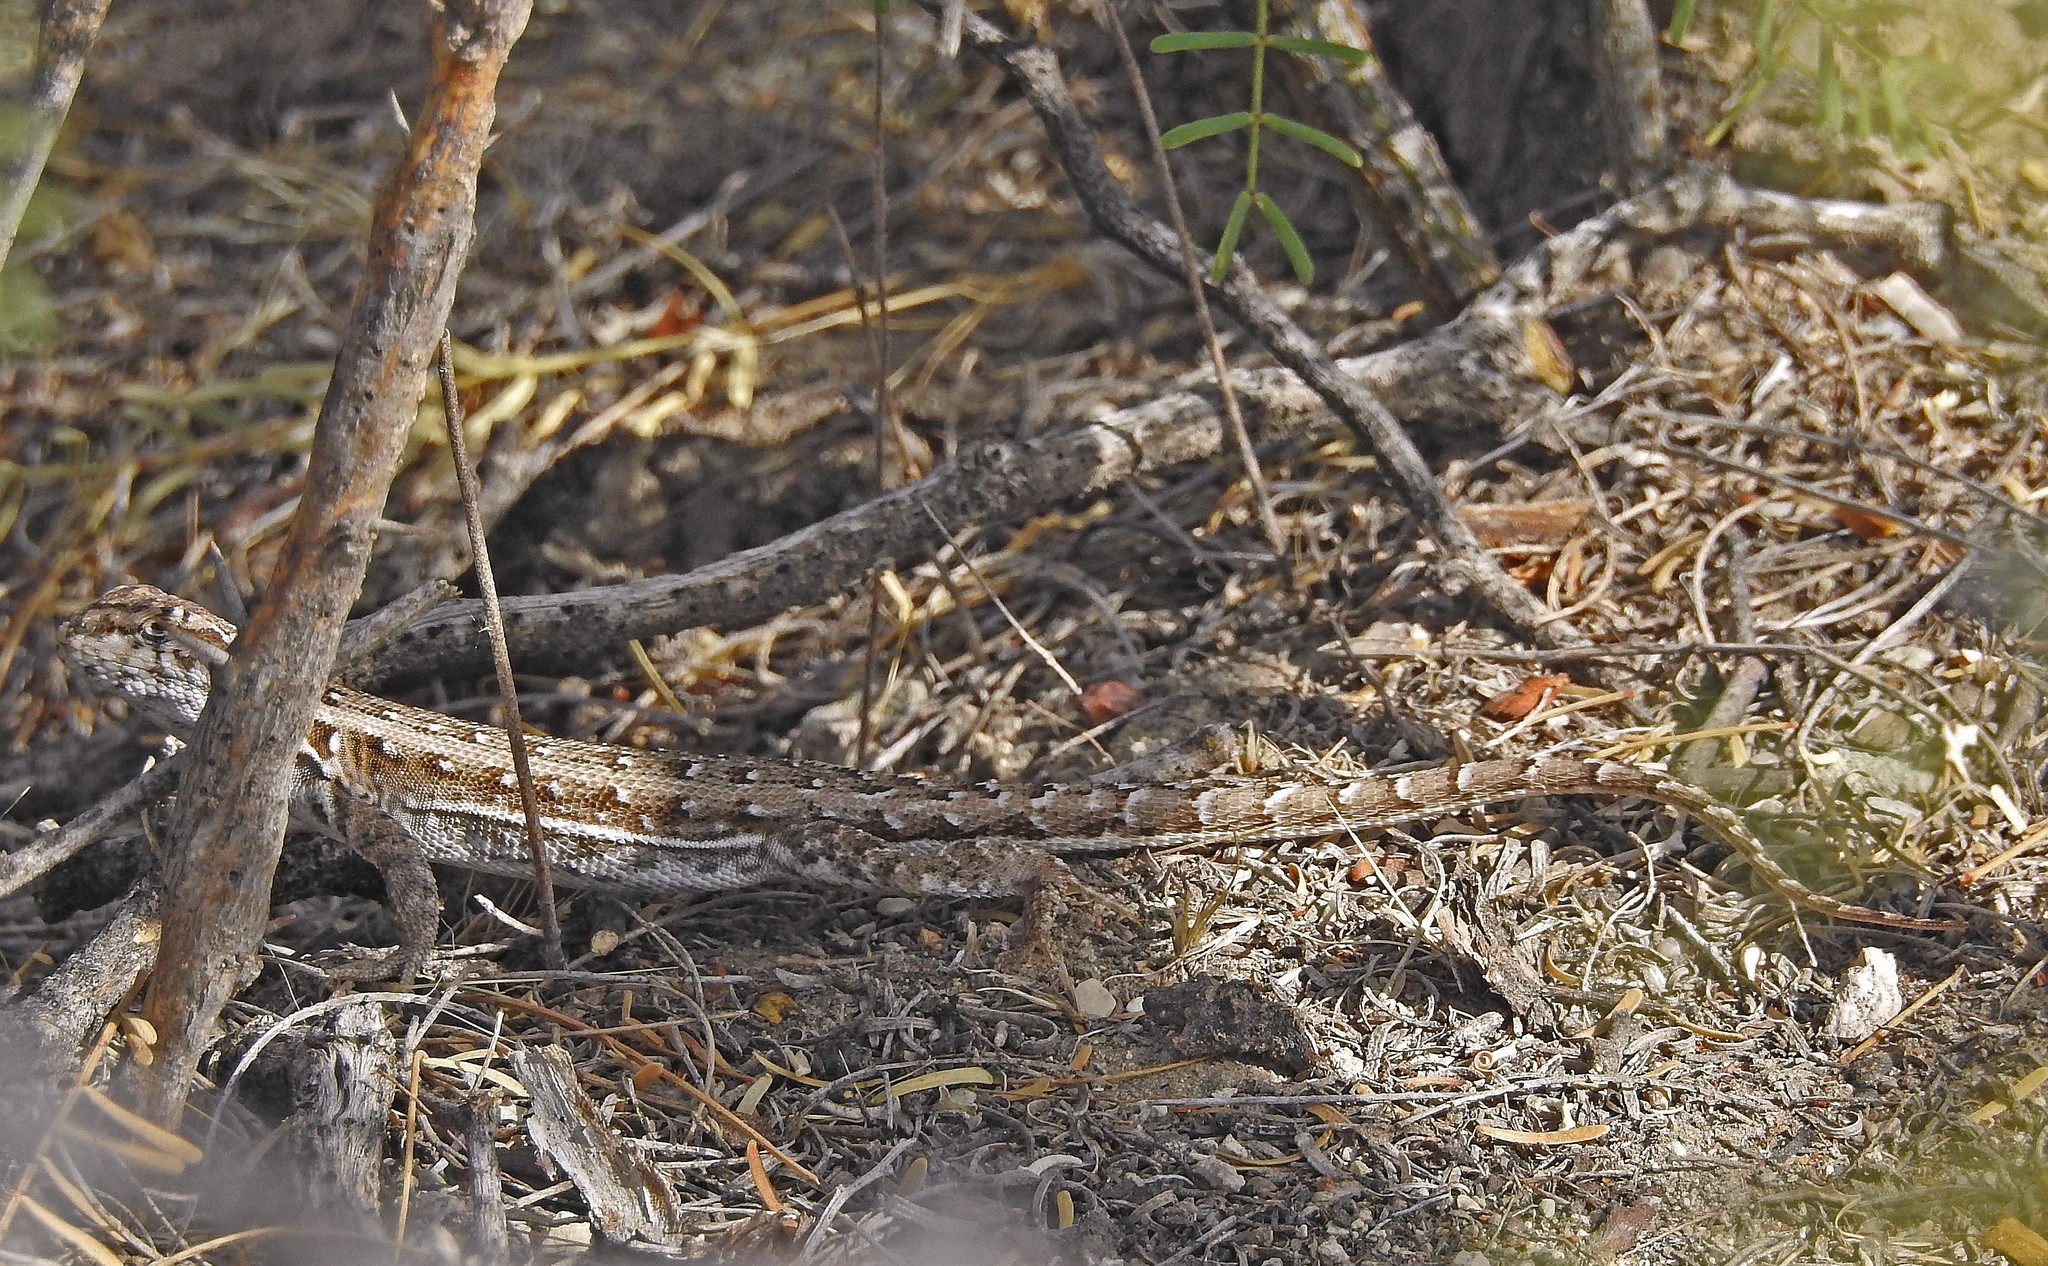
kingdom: Animalia
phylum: Chordata
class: Squamata
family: Liolaemidae
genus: Liolaemus
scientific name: Liolaemus darwinii
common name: Darwin's tree iguana
